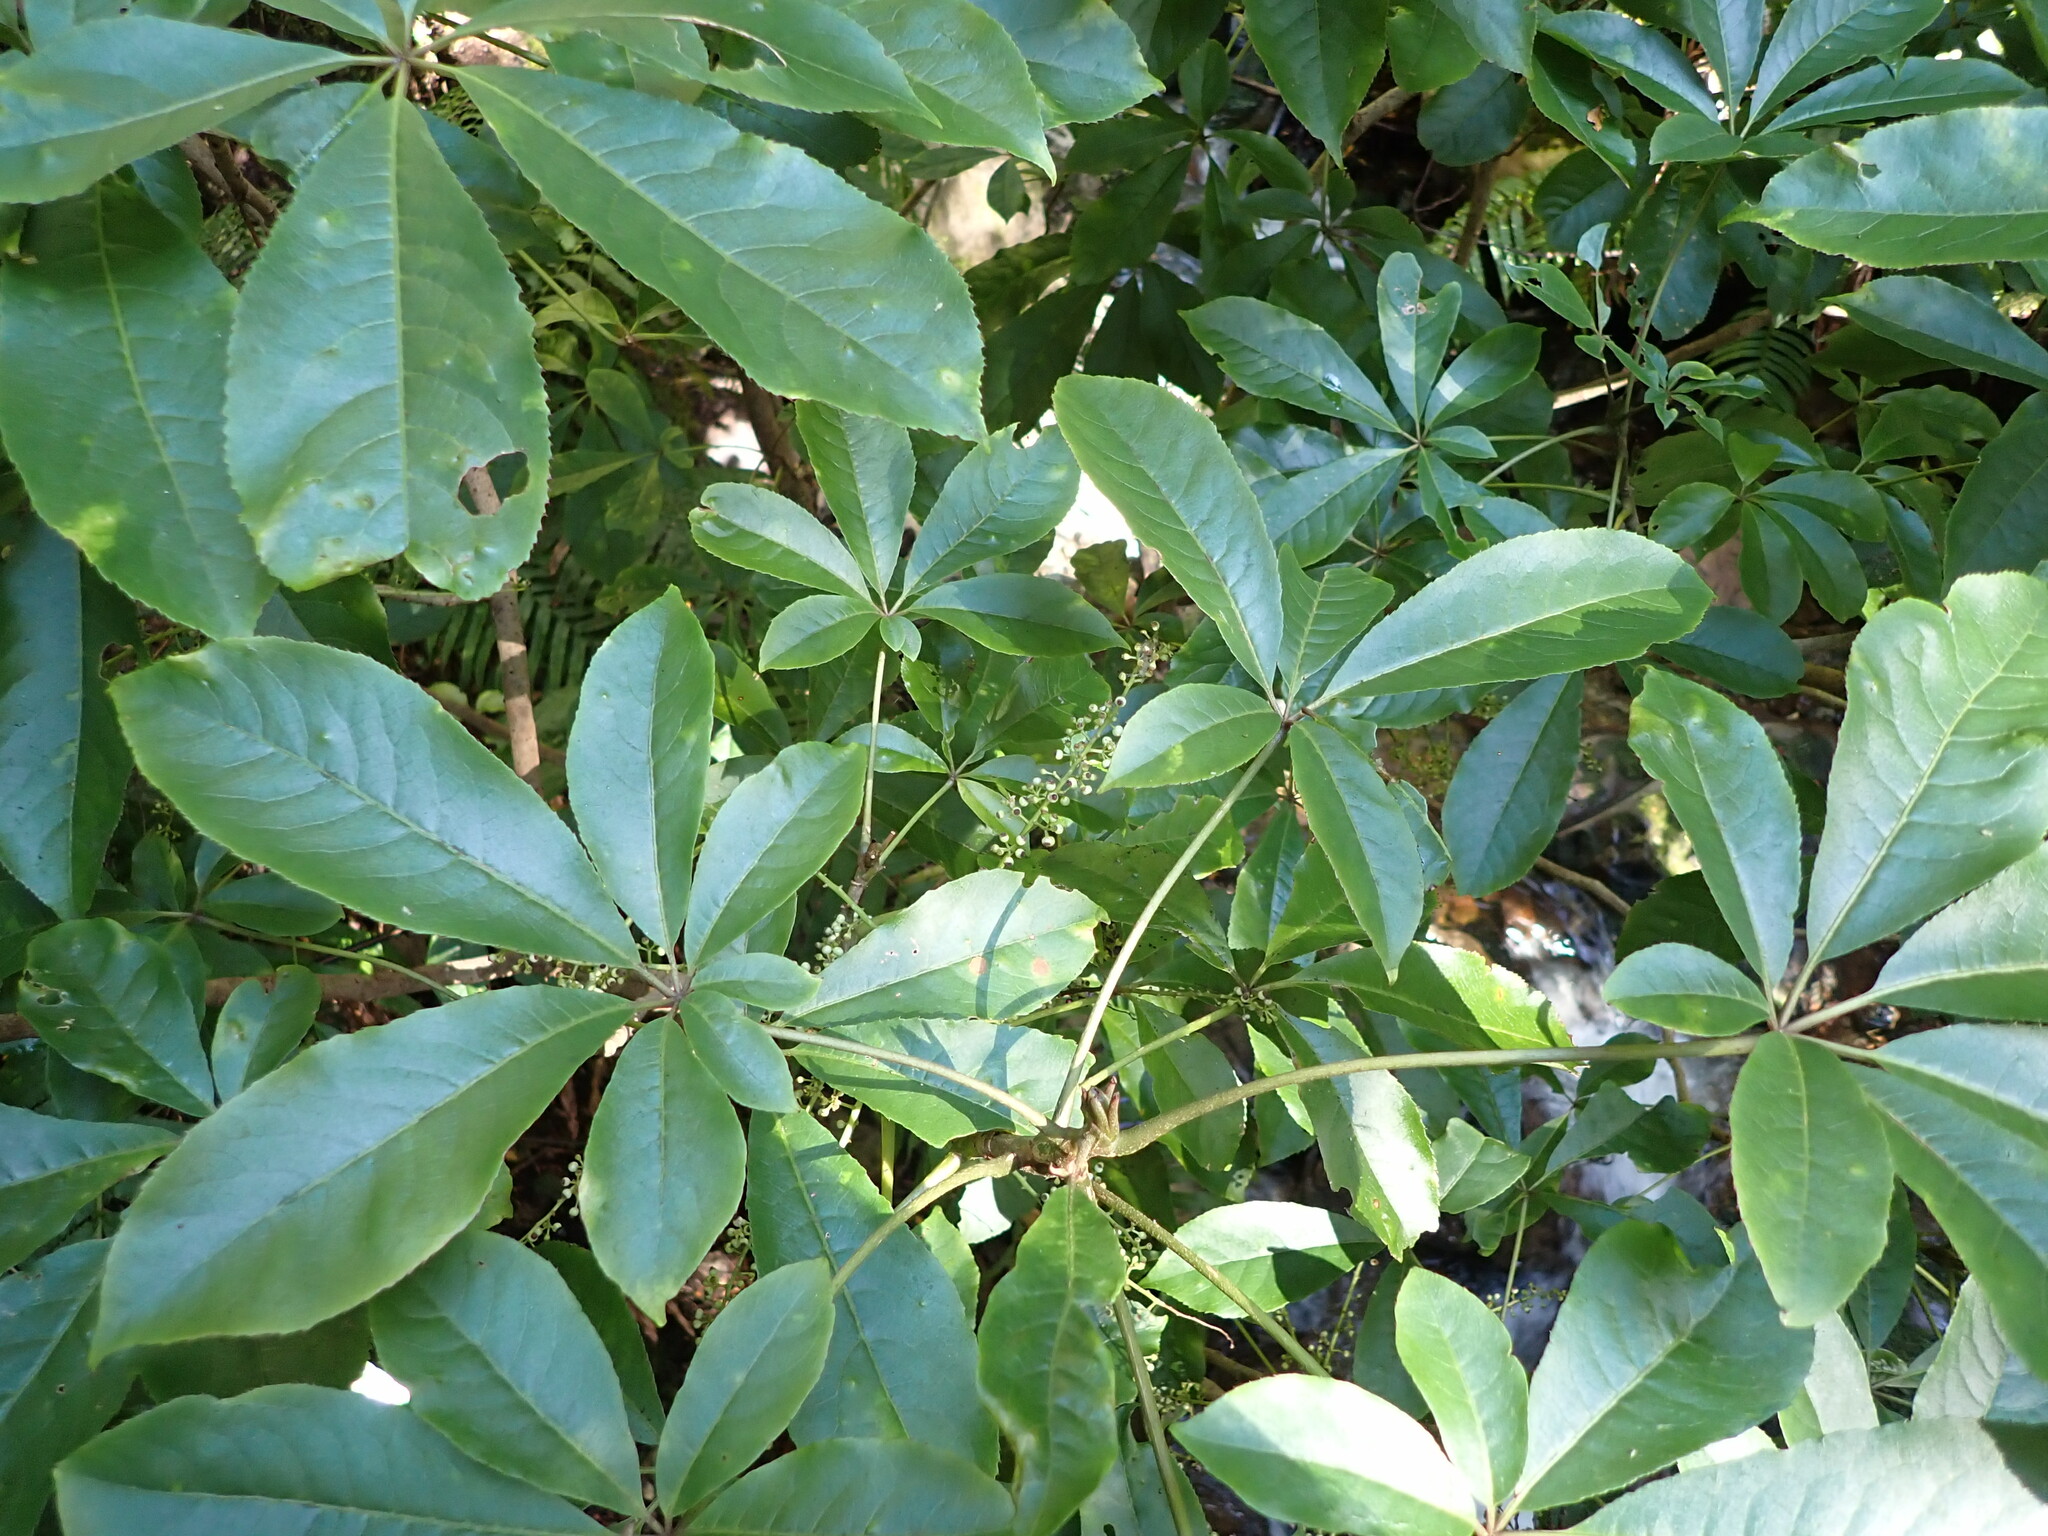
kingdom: Plantae
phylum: Tracheophyta
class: Magnoliopsida
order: Apiales
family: Araliaceae
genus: Schefflera
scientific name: Schefflera digitata
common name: Pate
